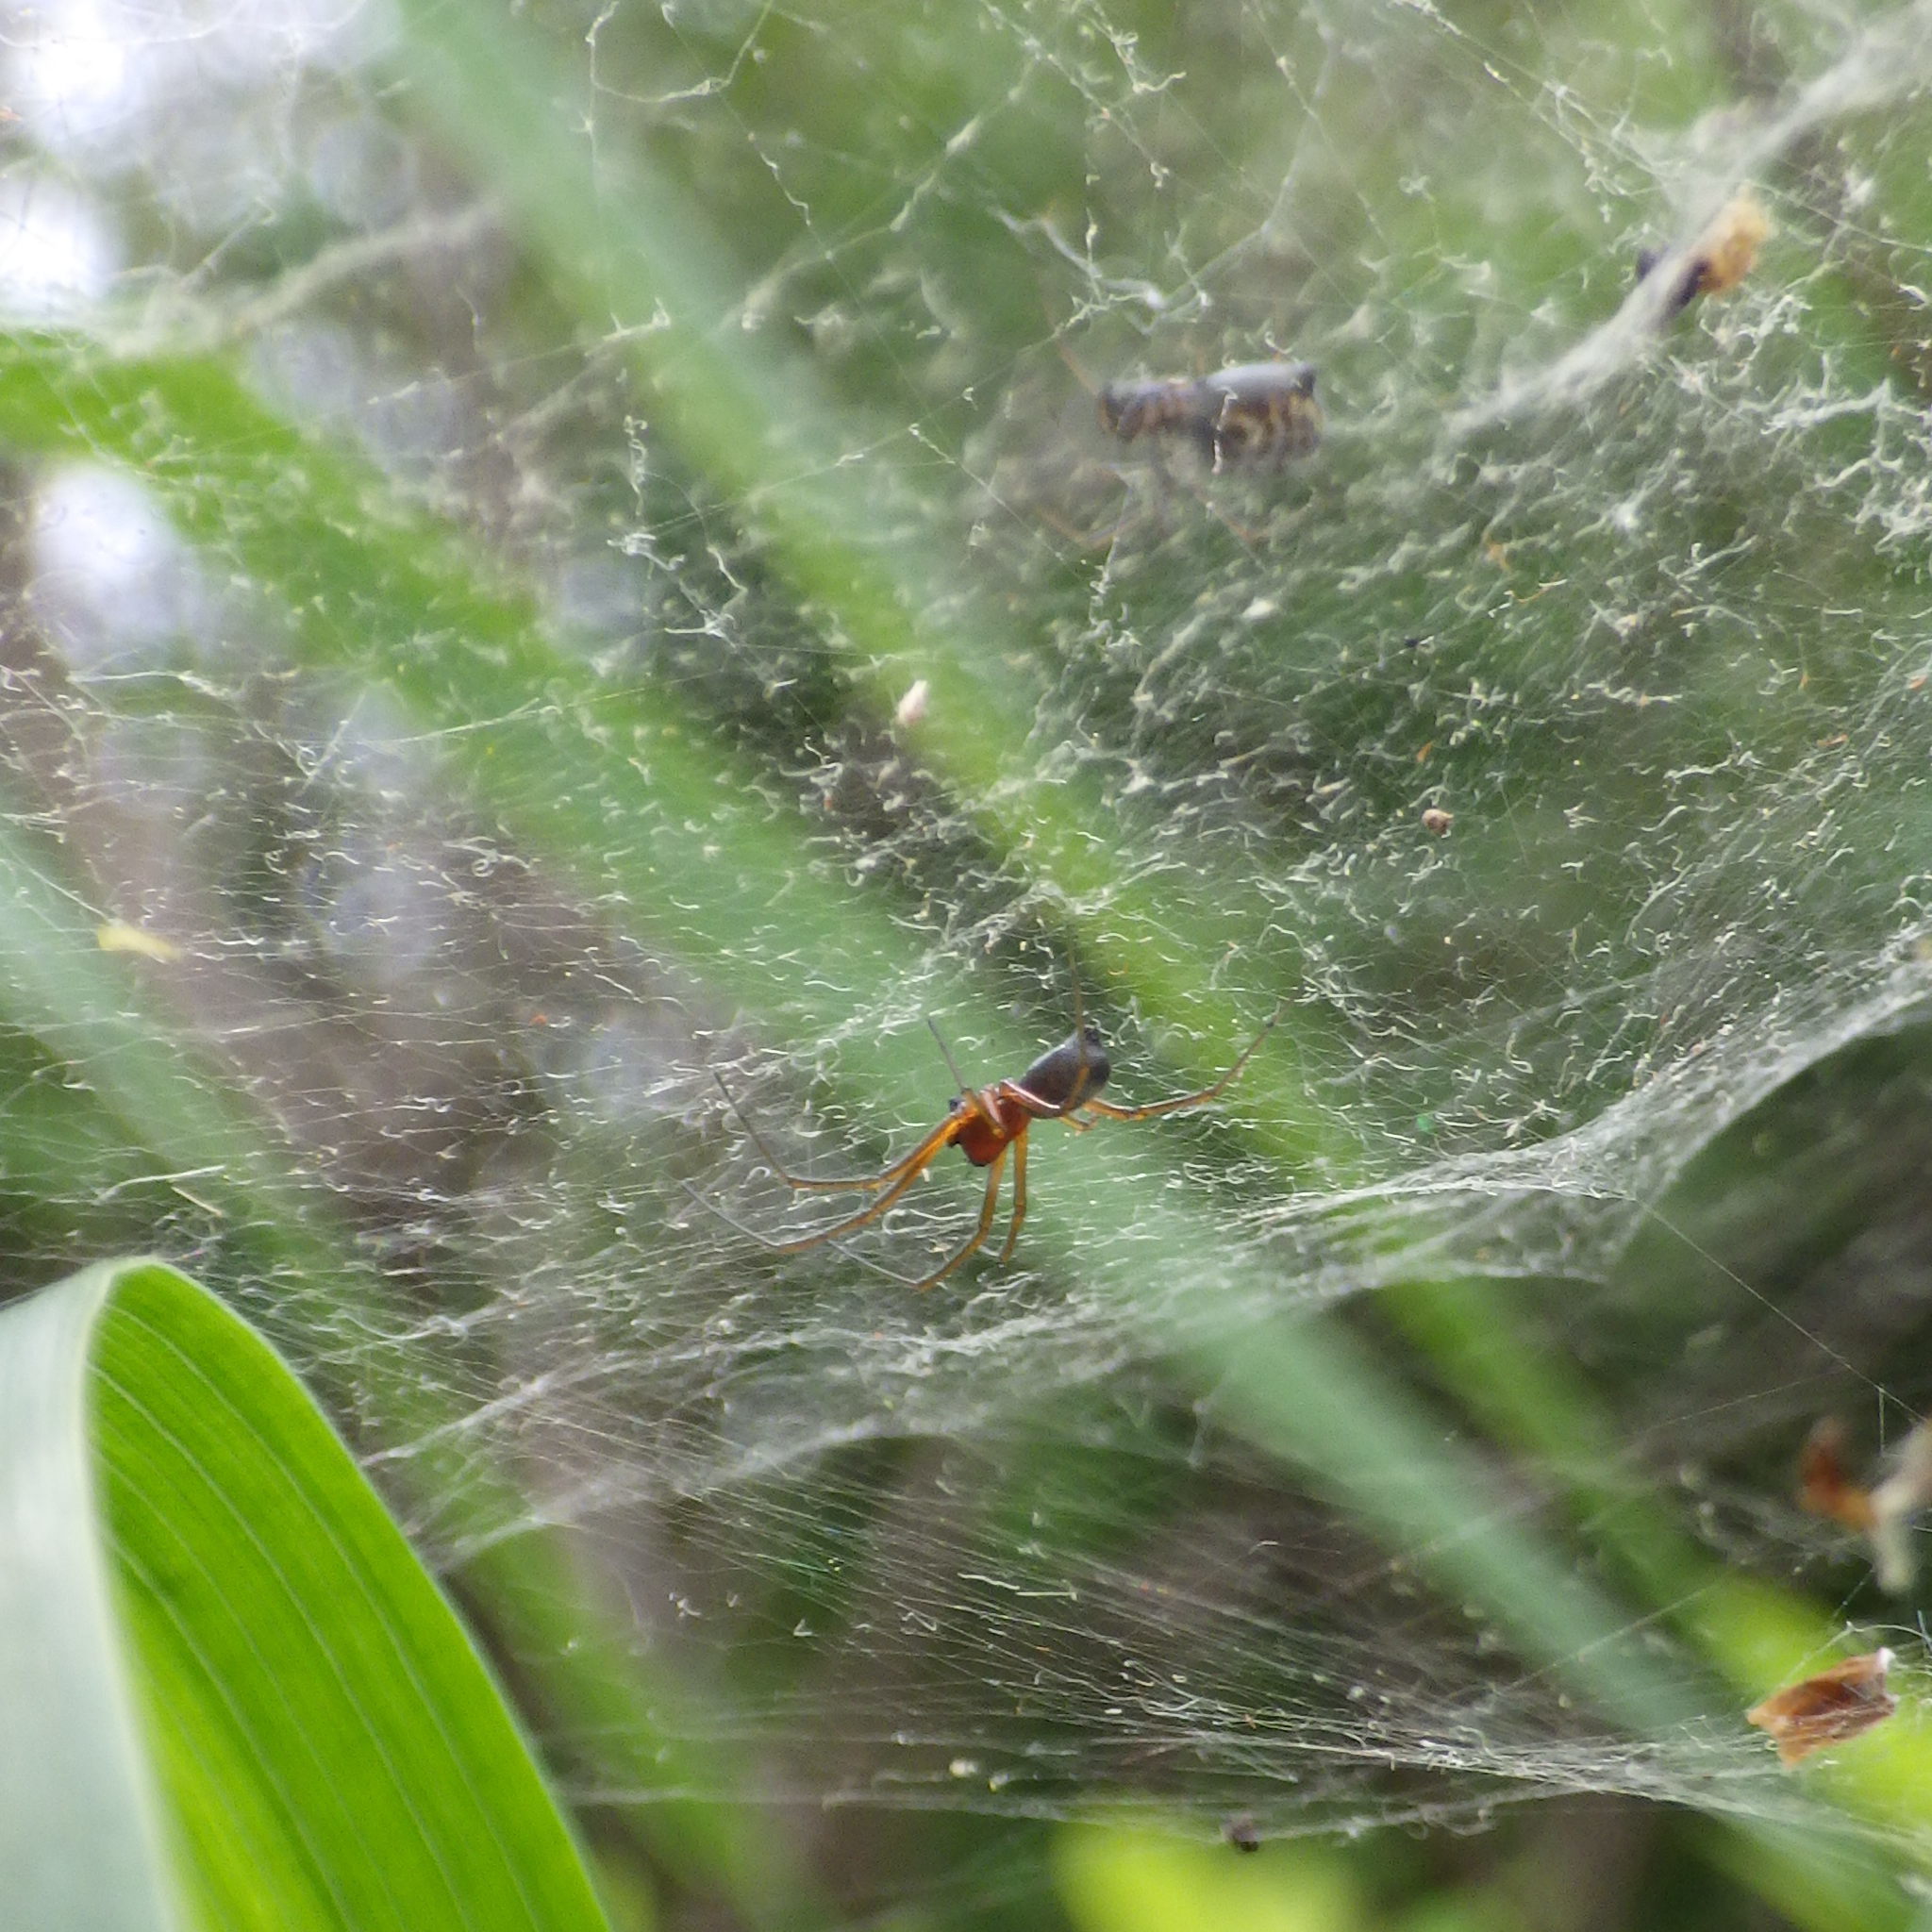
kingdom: Animalia
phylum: Arthropoda
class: Arachnida
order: Araneae
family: Linyphiidae
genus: Frontinella
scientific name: Frontinella pyramitela
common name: Bowl-and-doily spider
